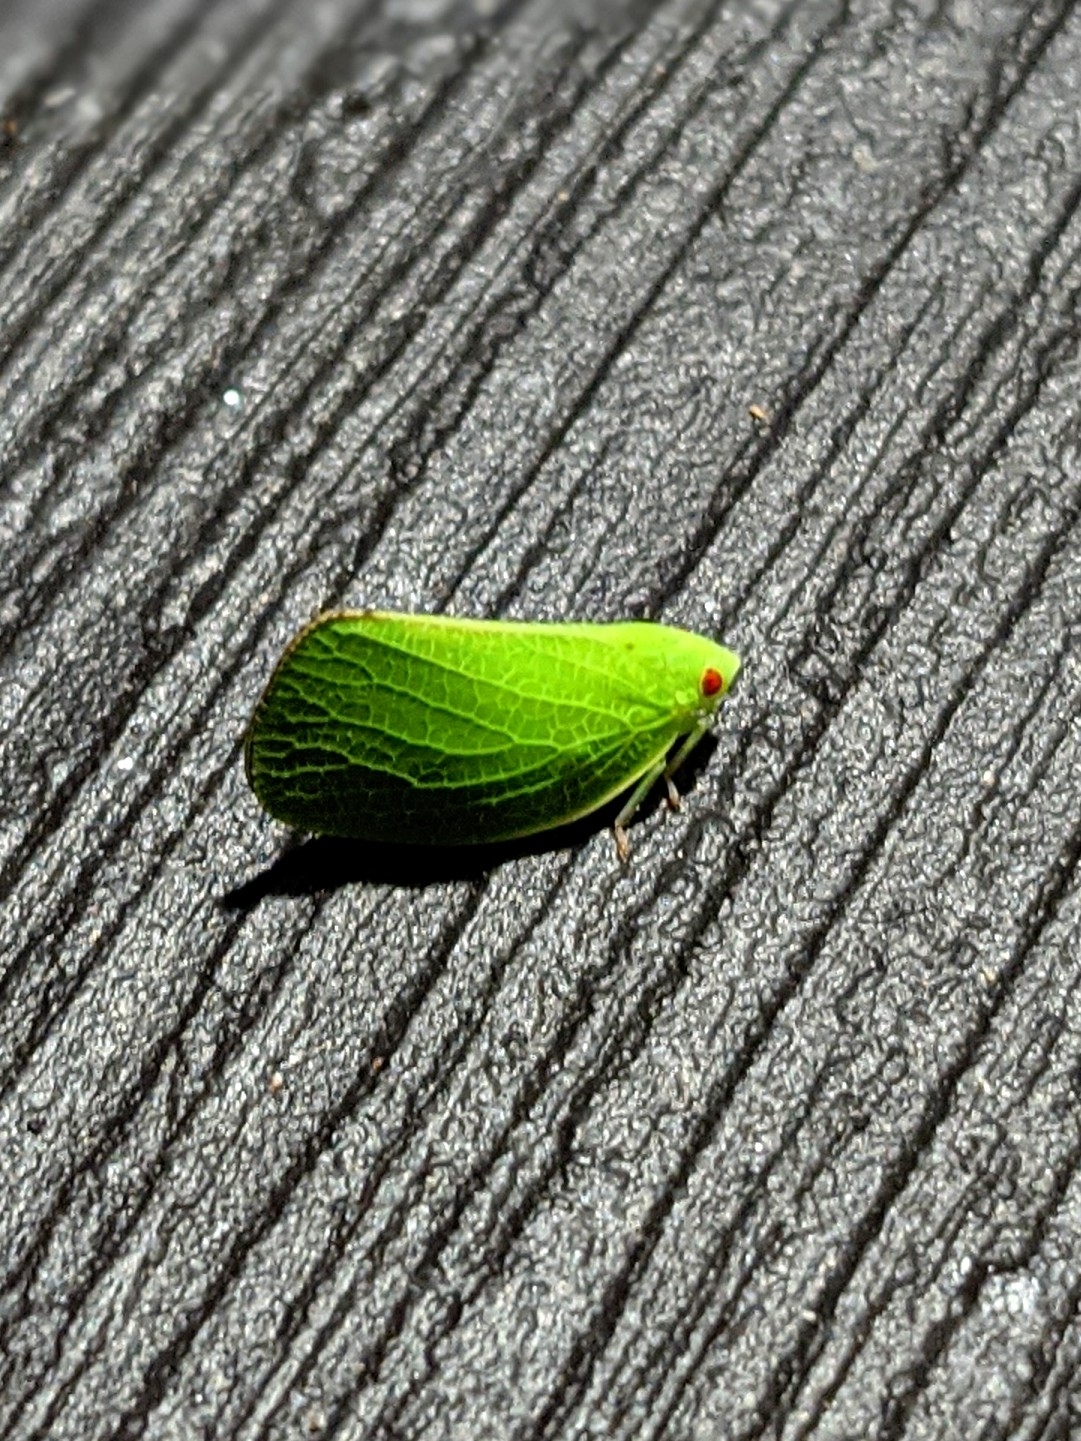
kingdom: Animalia
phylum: Arthropoda
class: Insecta
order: Hemiptera
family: Acanaloniidae
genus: Acanalonia
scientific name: Acanalonia conica
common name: Green cone-headed planthopper
